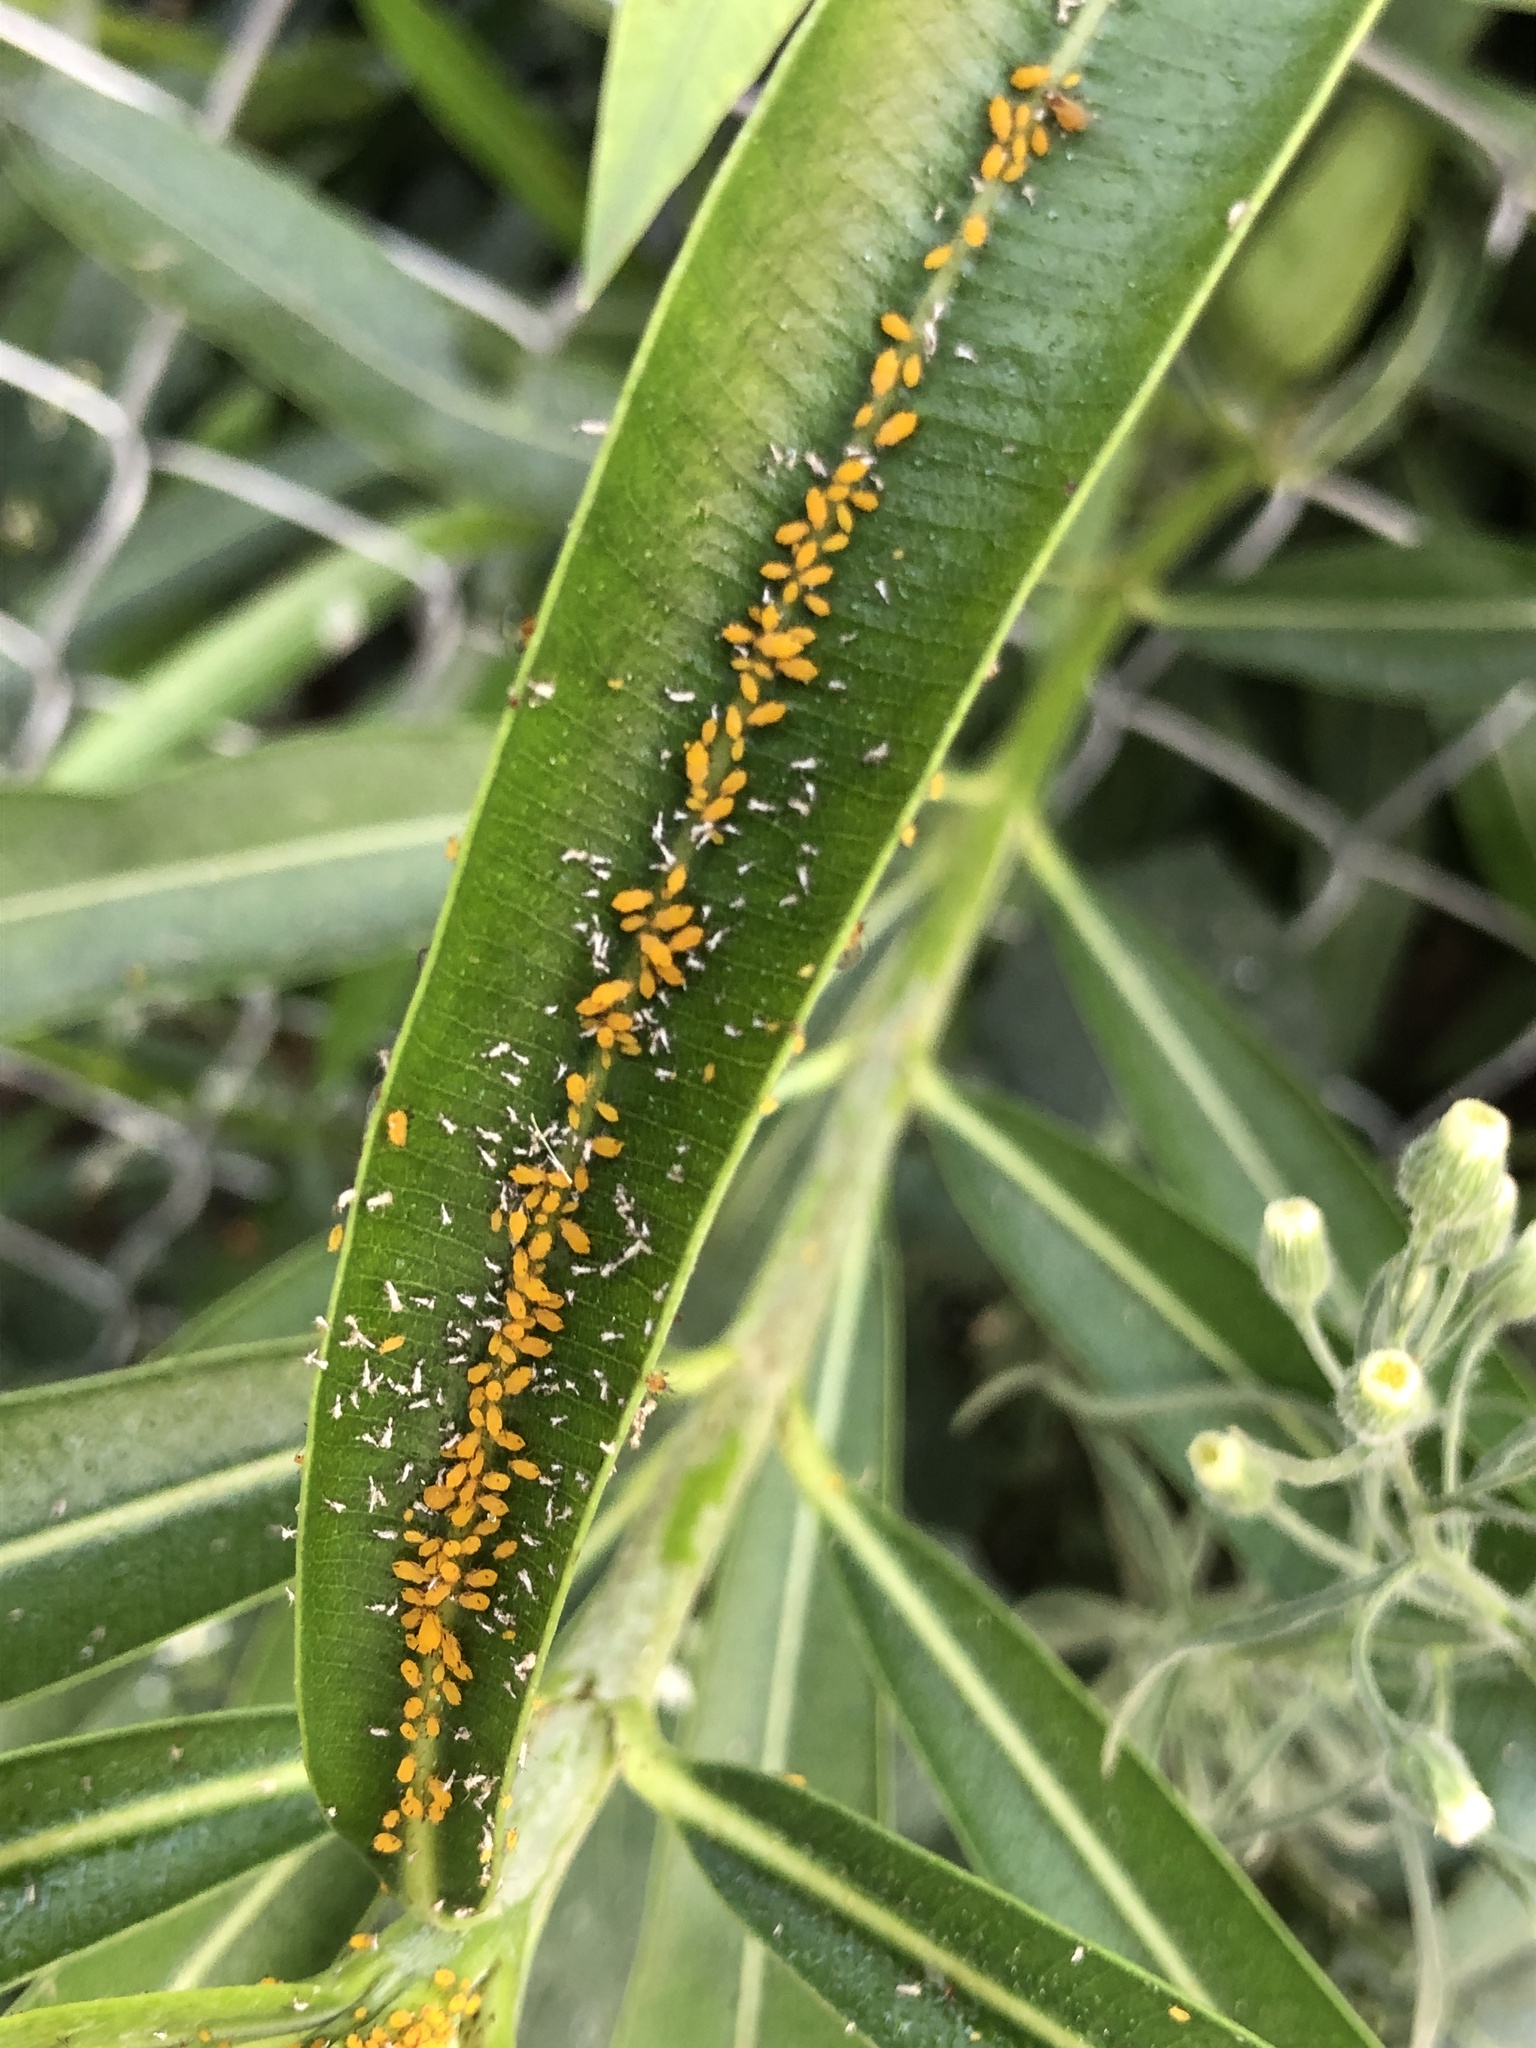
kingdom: Animalia
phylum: Arthropoda
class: Insecta
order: Hemiptera
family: Aphididae
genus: Aphis
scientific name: Aphis nerii
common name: Oleander aphid
